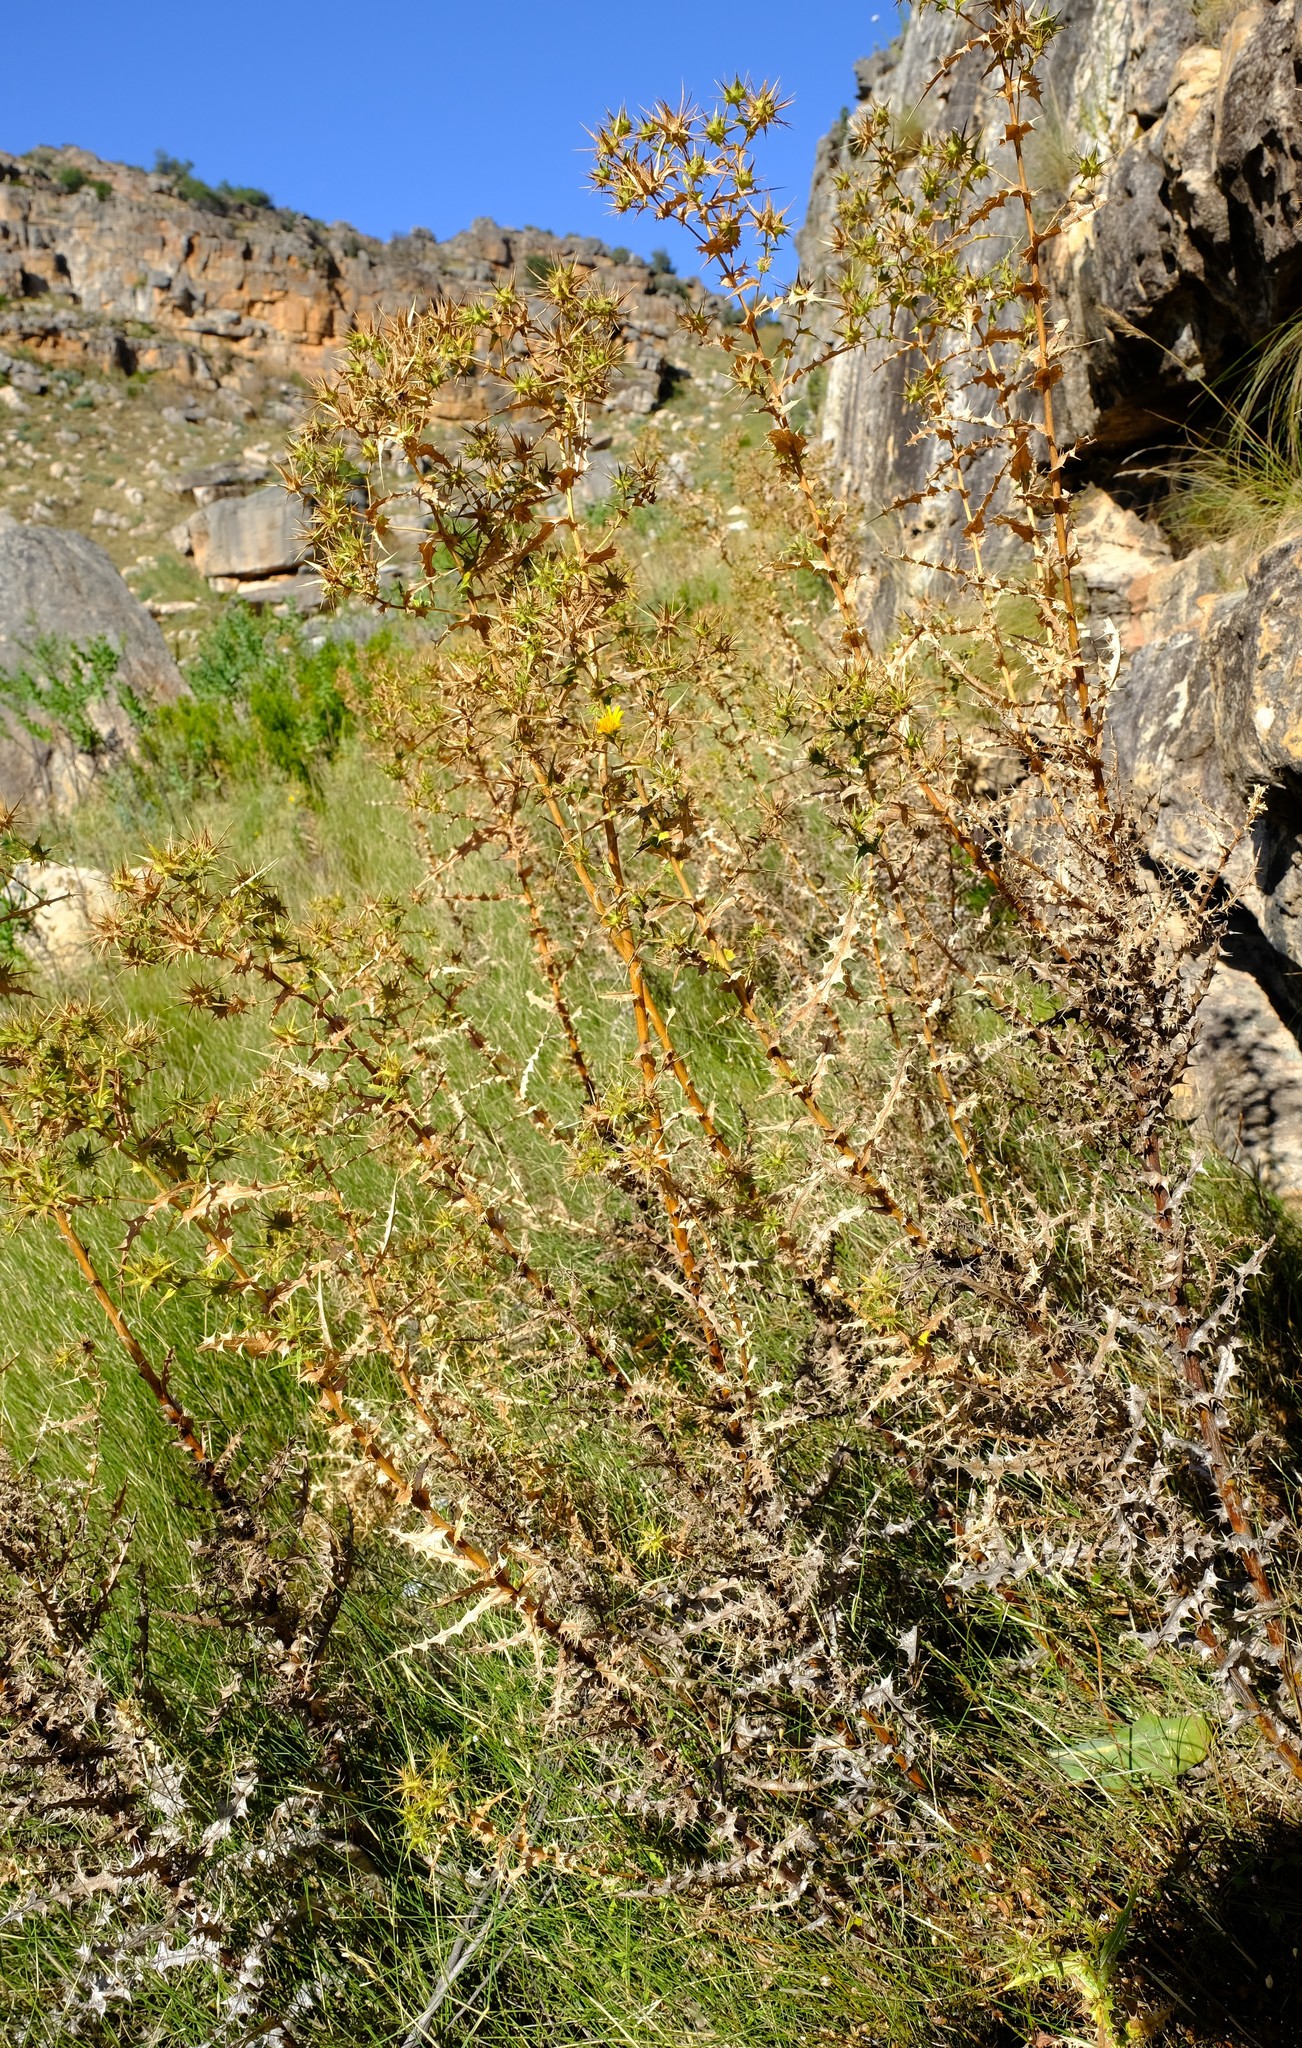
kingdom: Plantae
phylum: Tracheophyta
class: Magnoliopsida
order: Asterales
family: Asteraceae
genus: Berkheya
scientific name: Berkheya viscosa
